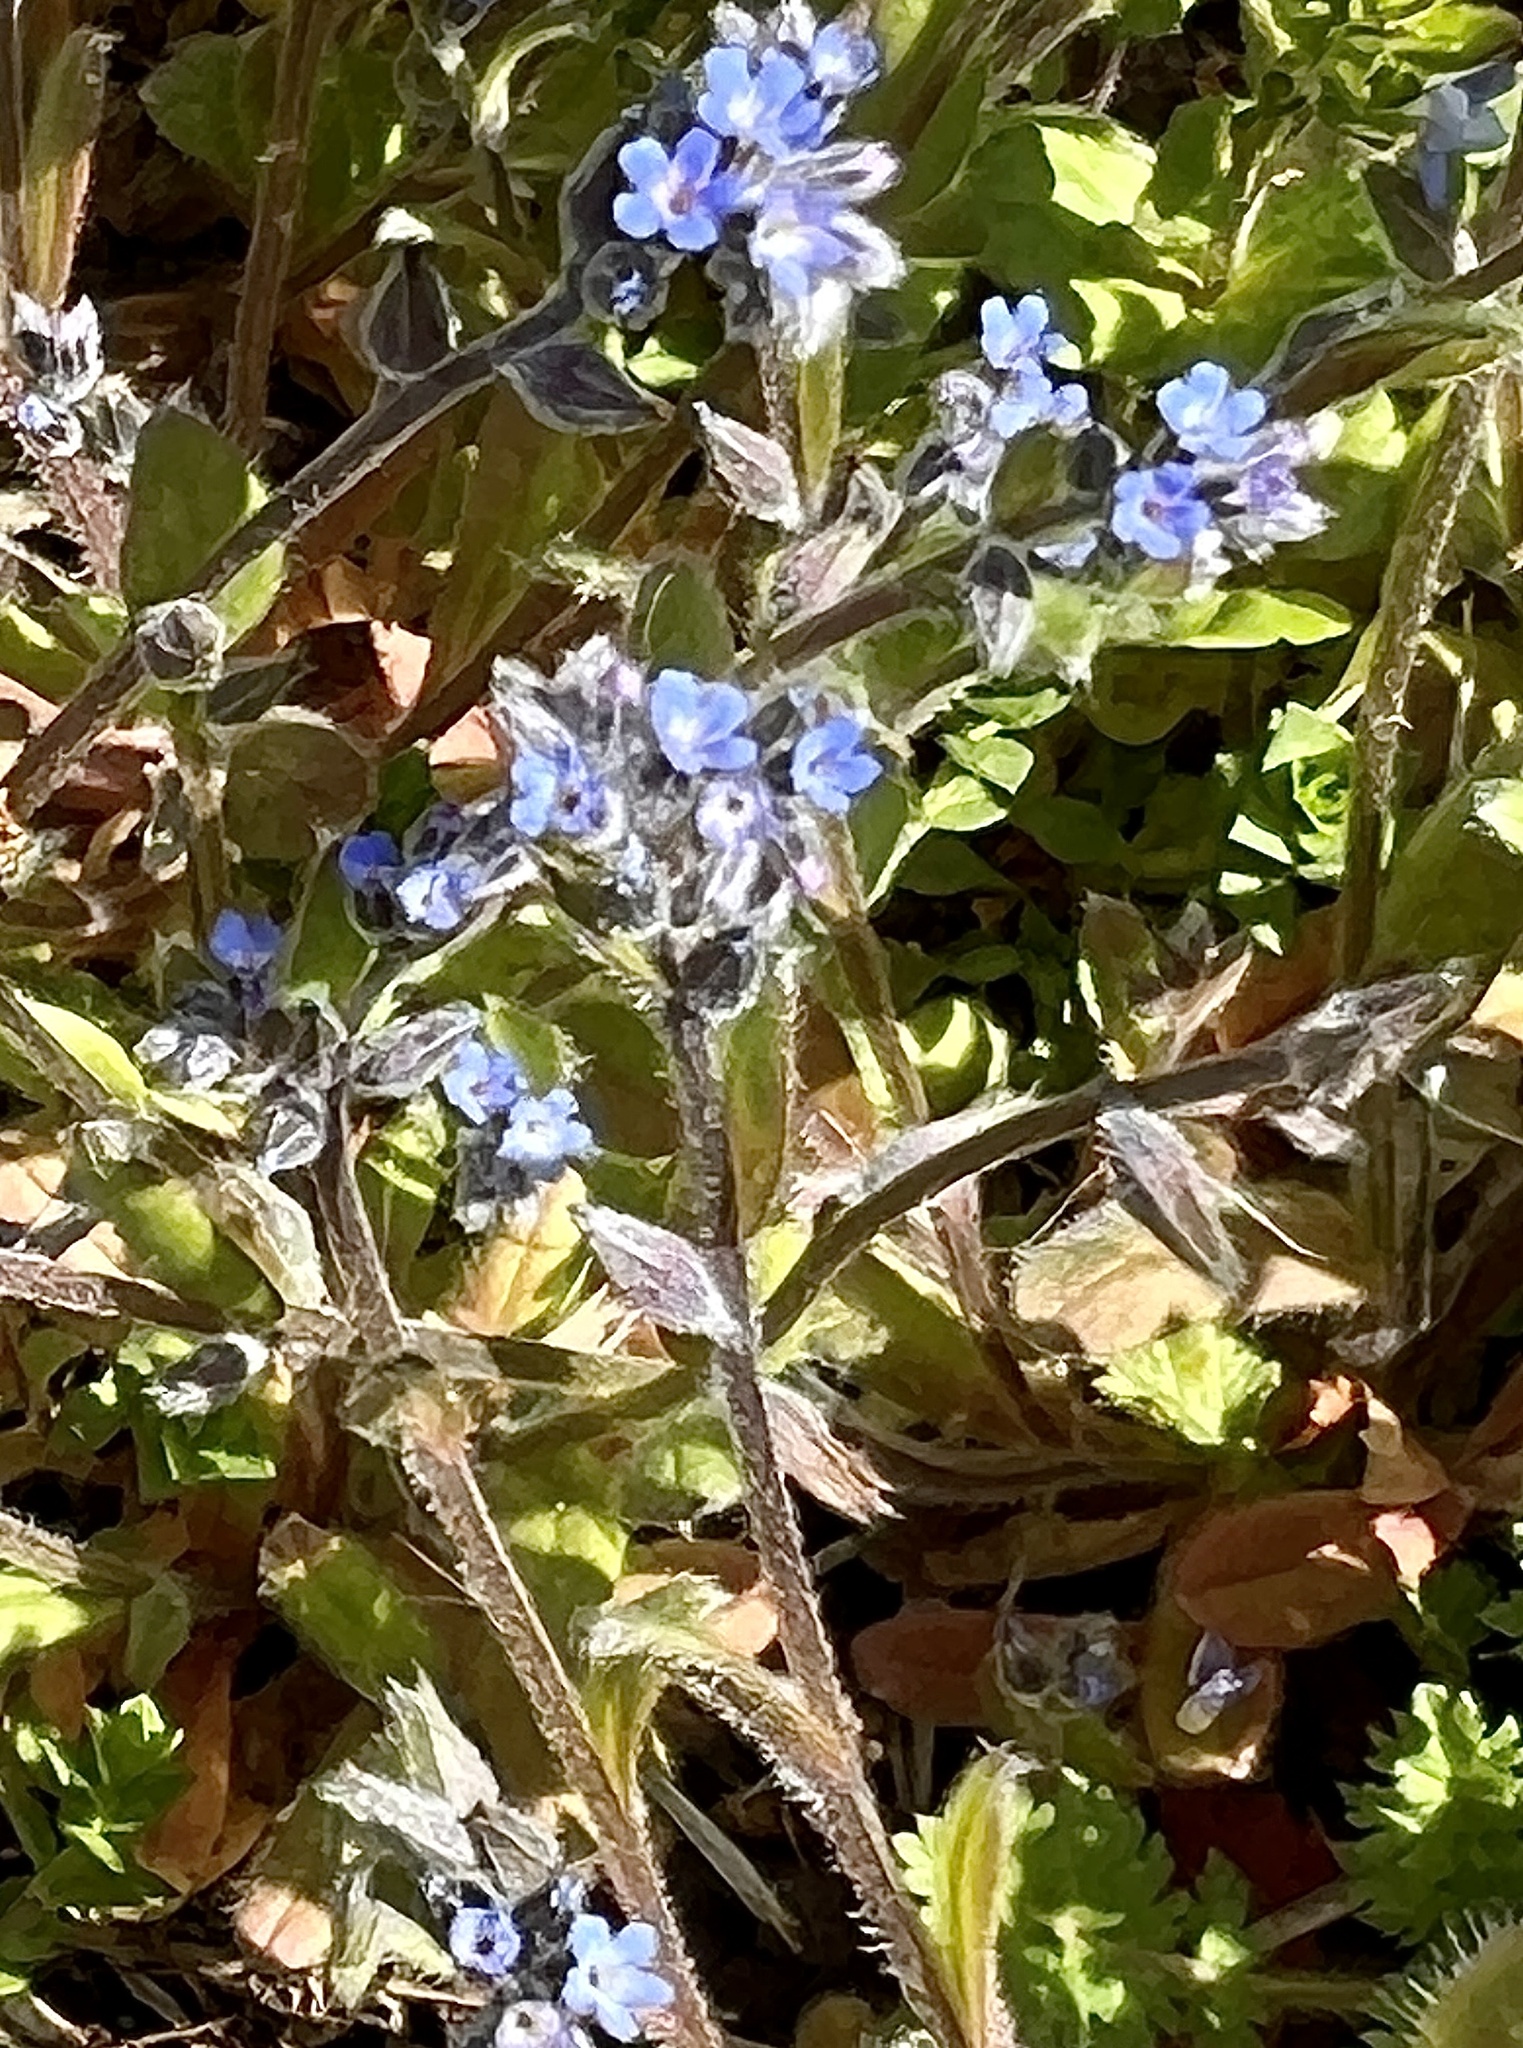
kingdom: Plantae
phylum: Tracheophyta
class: Magnoliopsida
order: Boraginales
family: Boraginaceae
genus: Myosotis
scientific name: Myosotis sylvatica
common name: Wood forget-me-not
